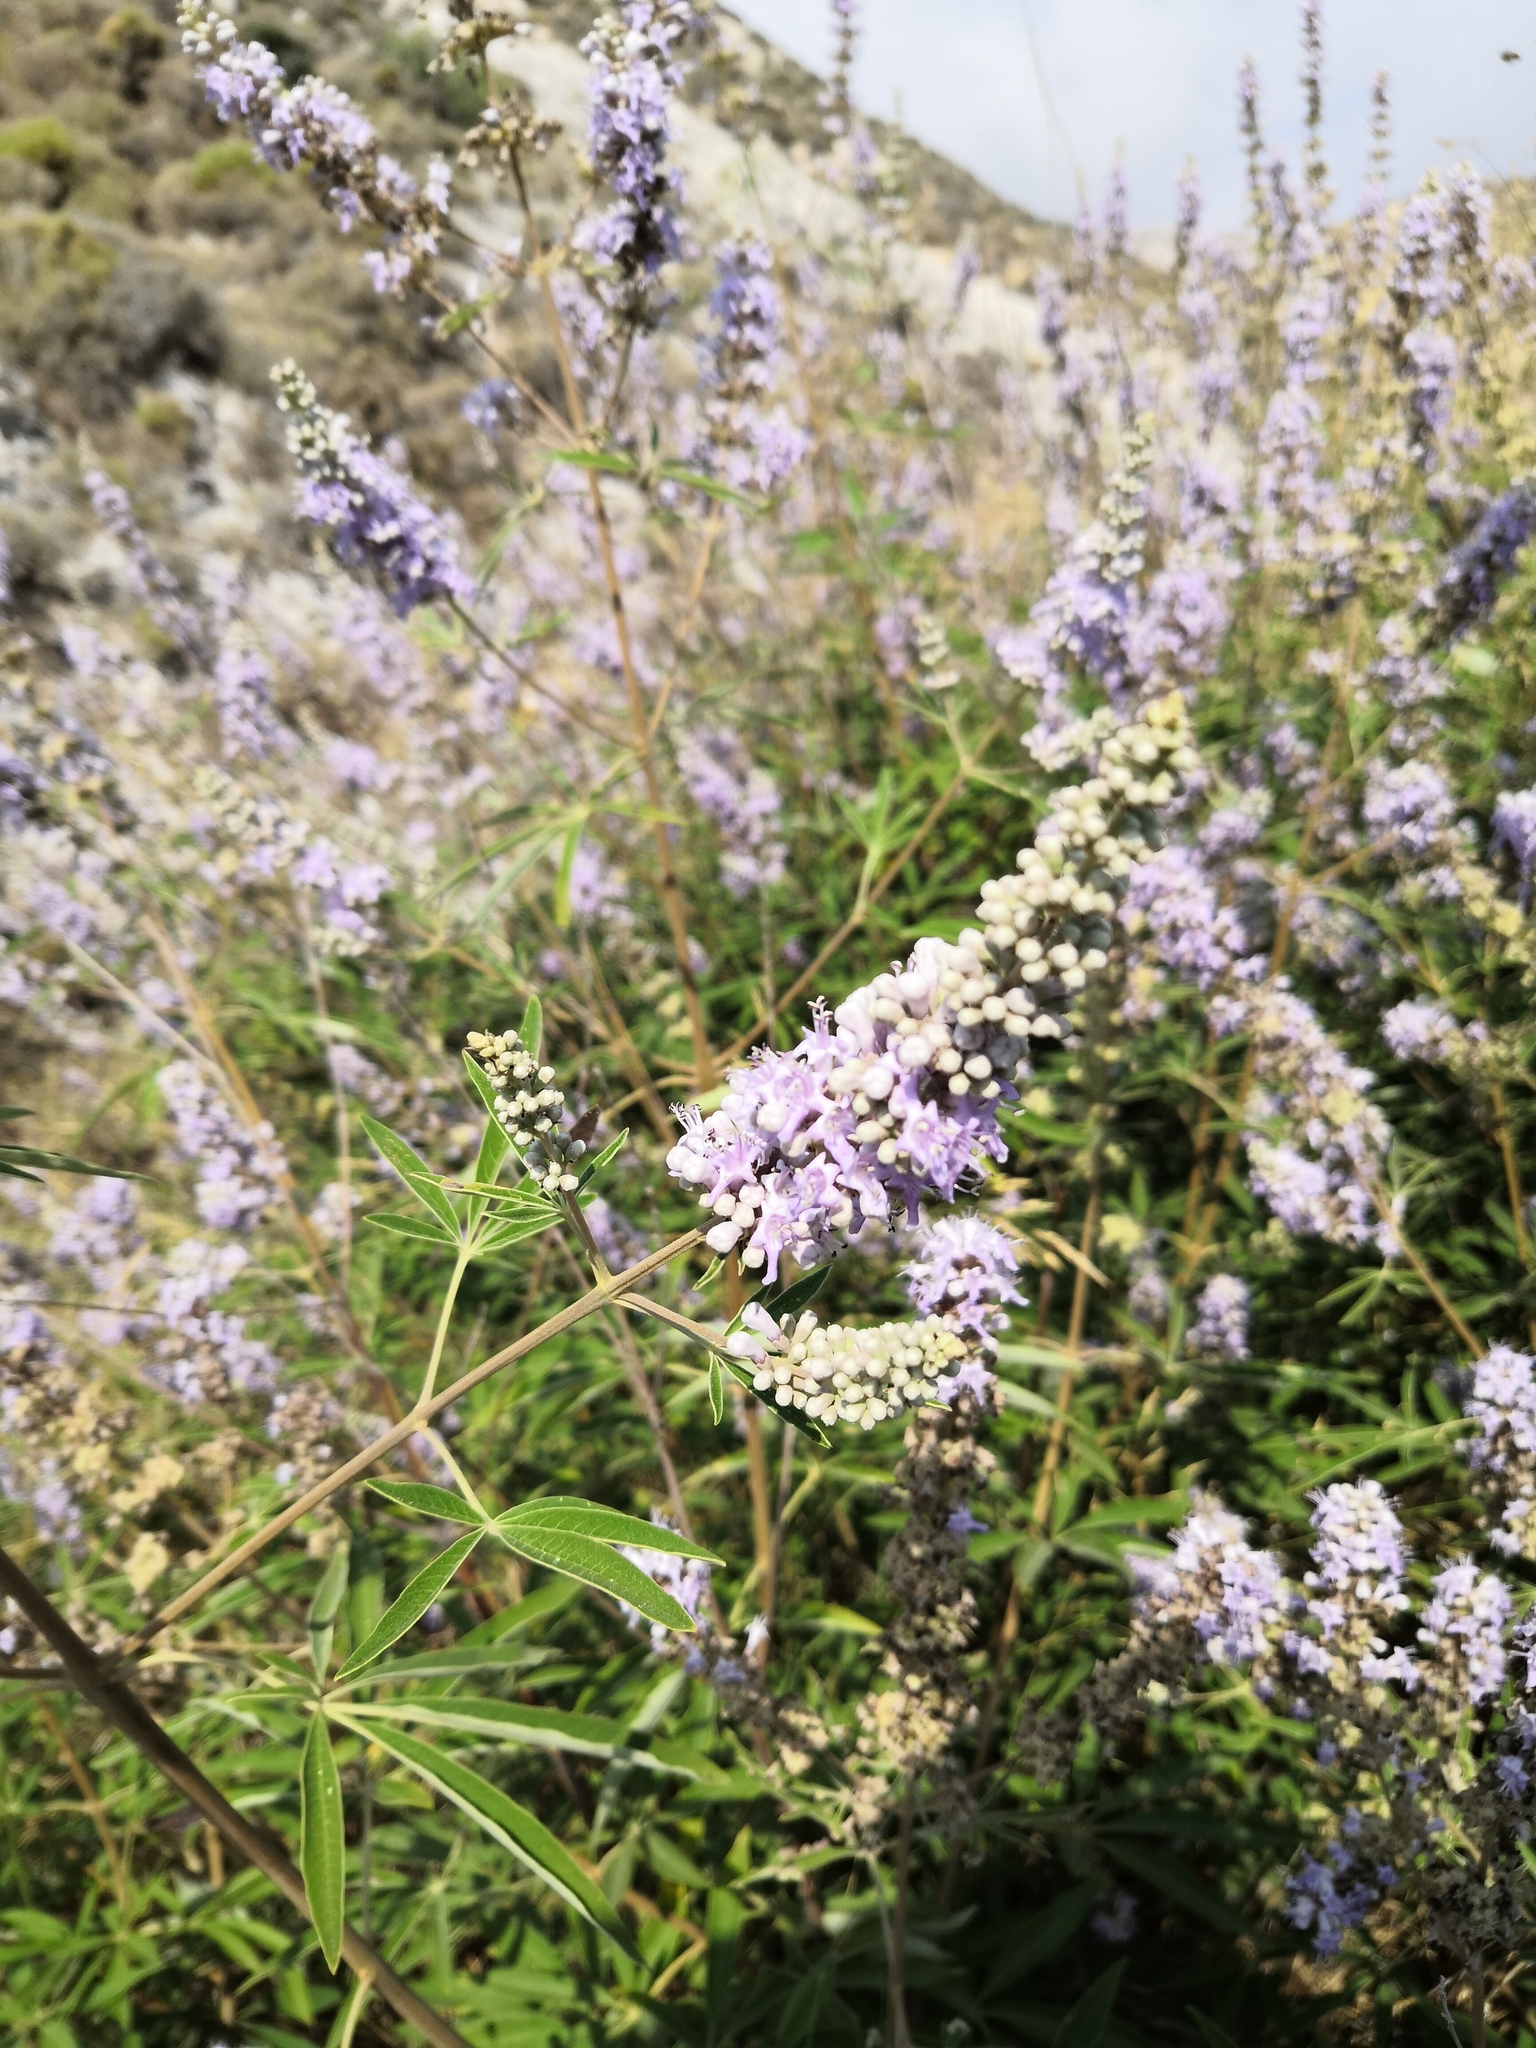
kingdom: Plantae
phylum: Tracheophyta
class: Magnoliopsida
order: Lamiales
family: Lamiaceae
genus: Vitex
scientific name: Vitex agnus-castus
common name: Chasteberry
